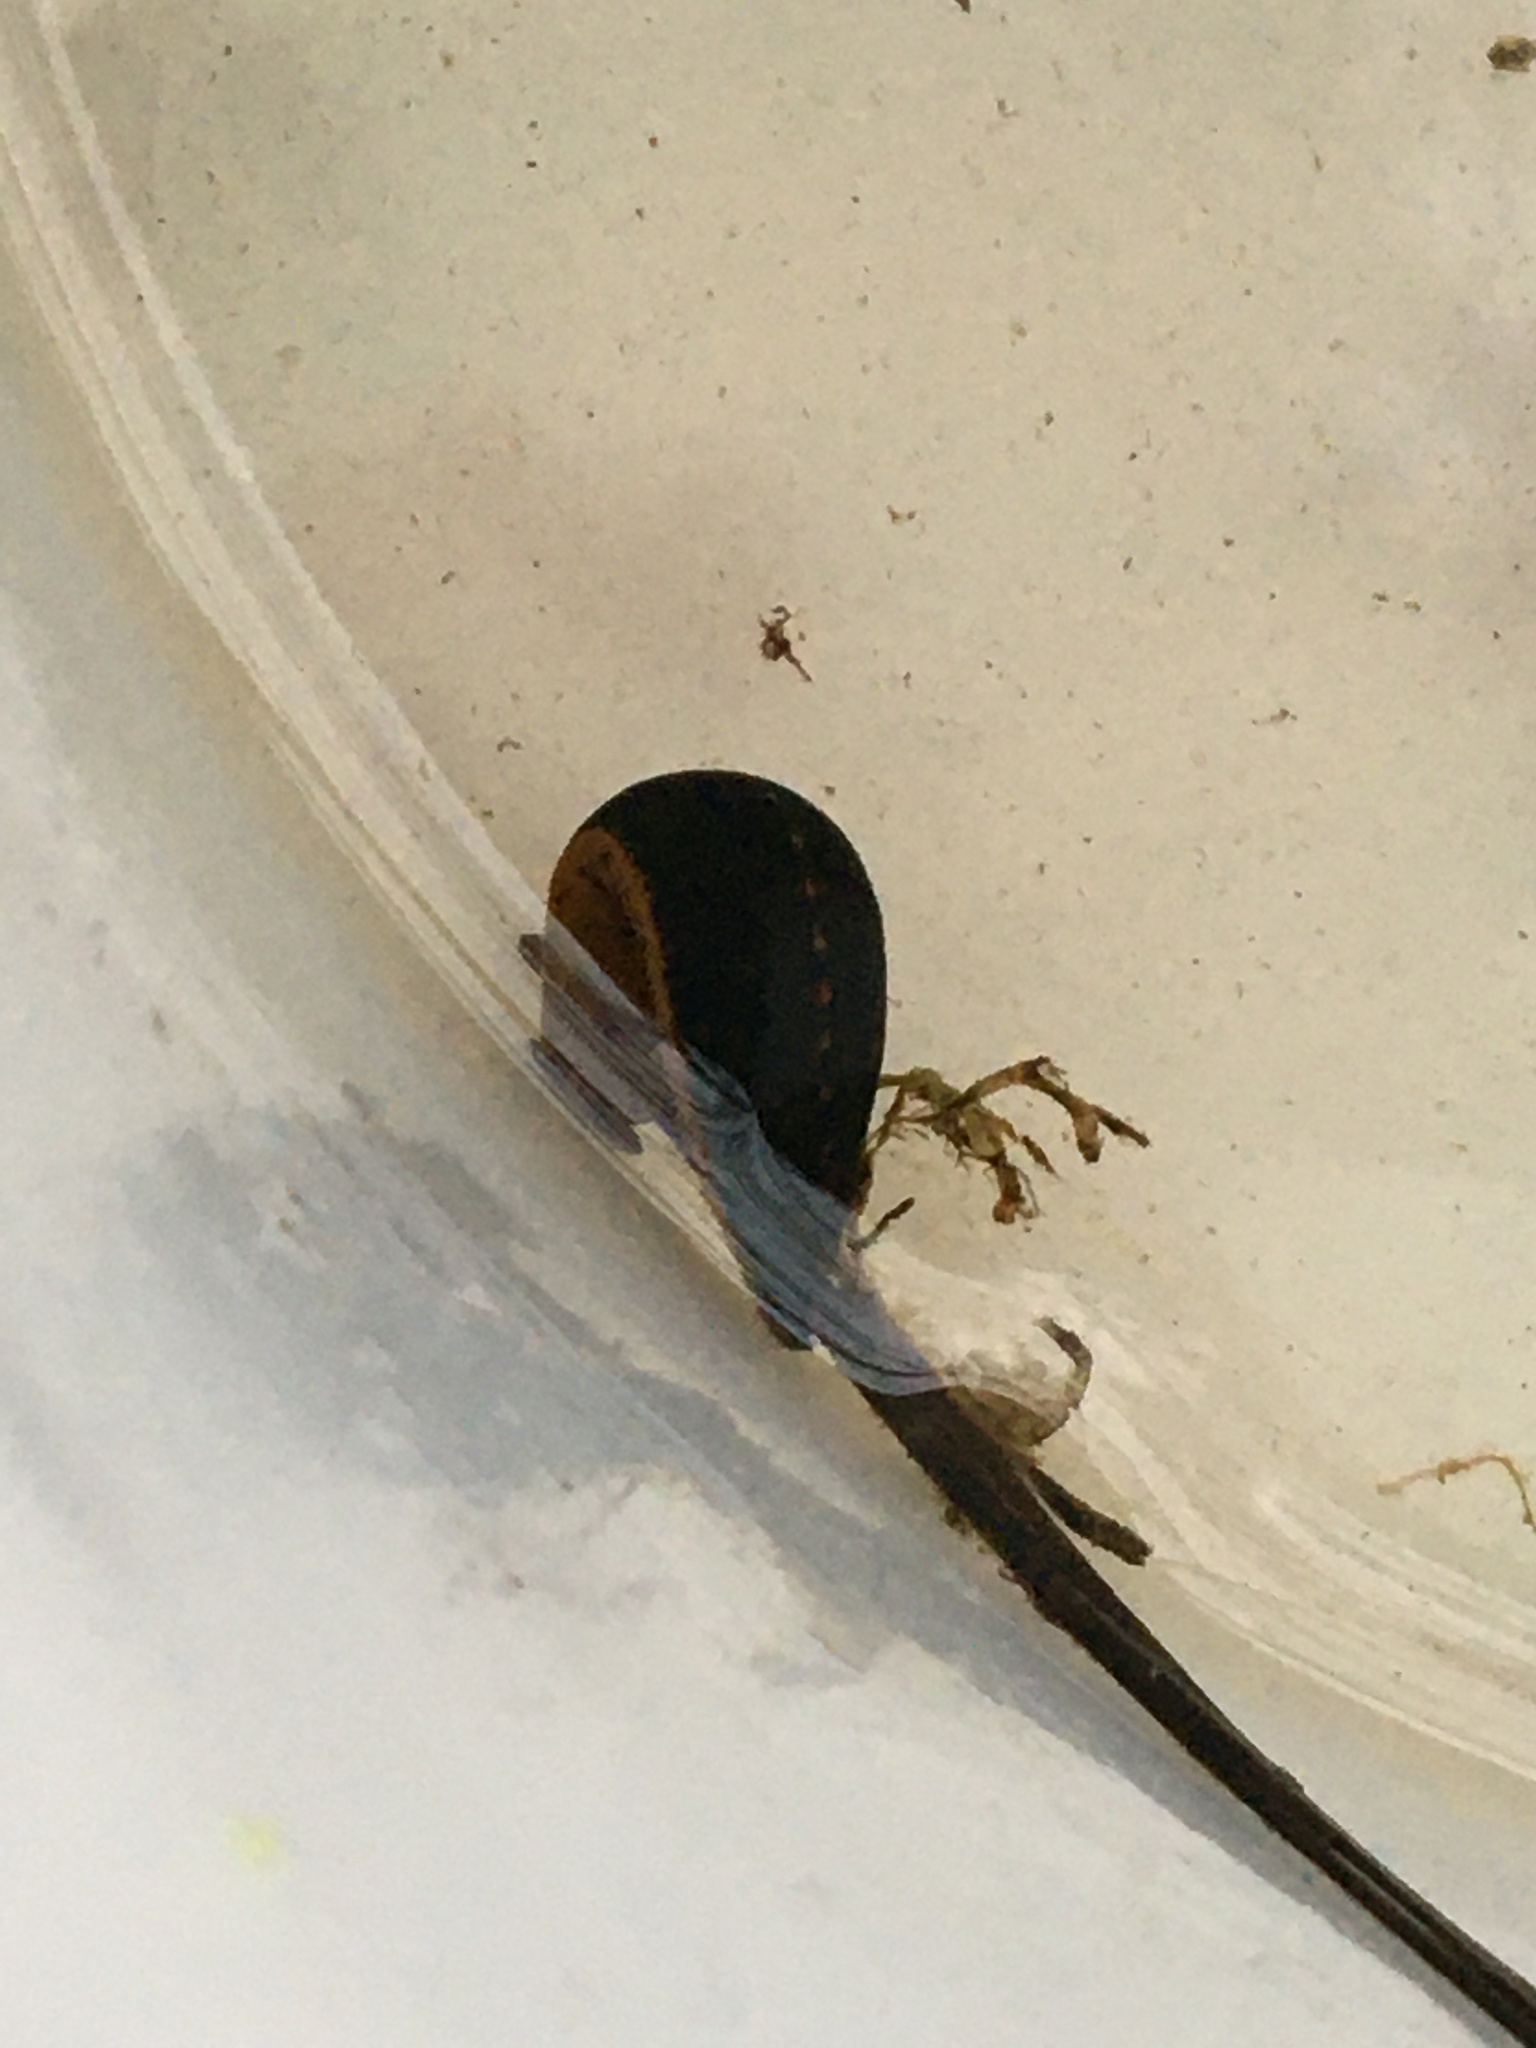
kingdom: Animalia
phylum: Annelida
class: Clitellata
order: Arhynchobdellida
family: Hirudinidae
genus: Macrobdella
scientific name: Macrobdella decora
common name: North american leech
